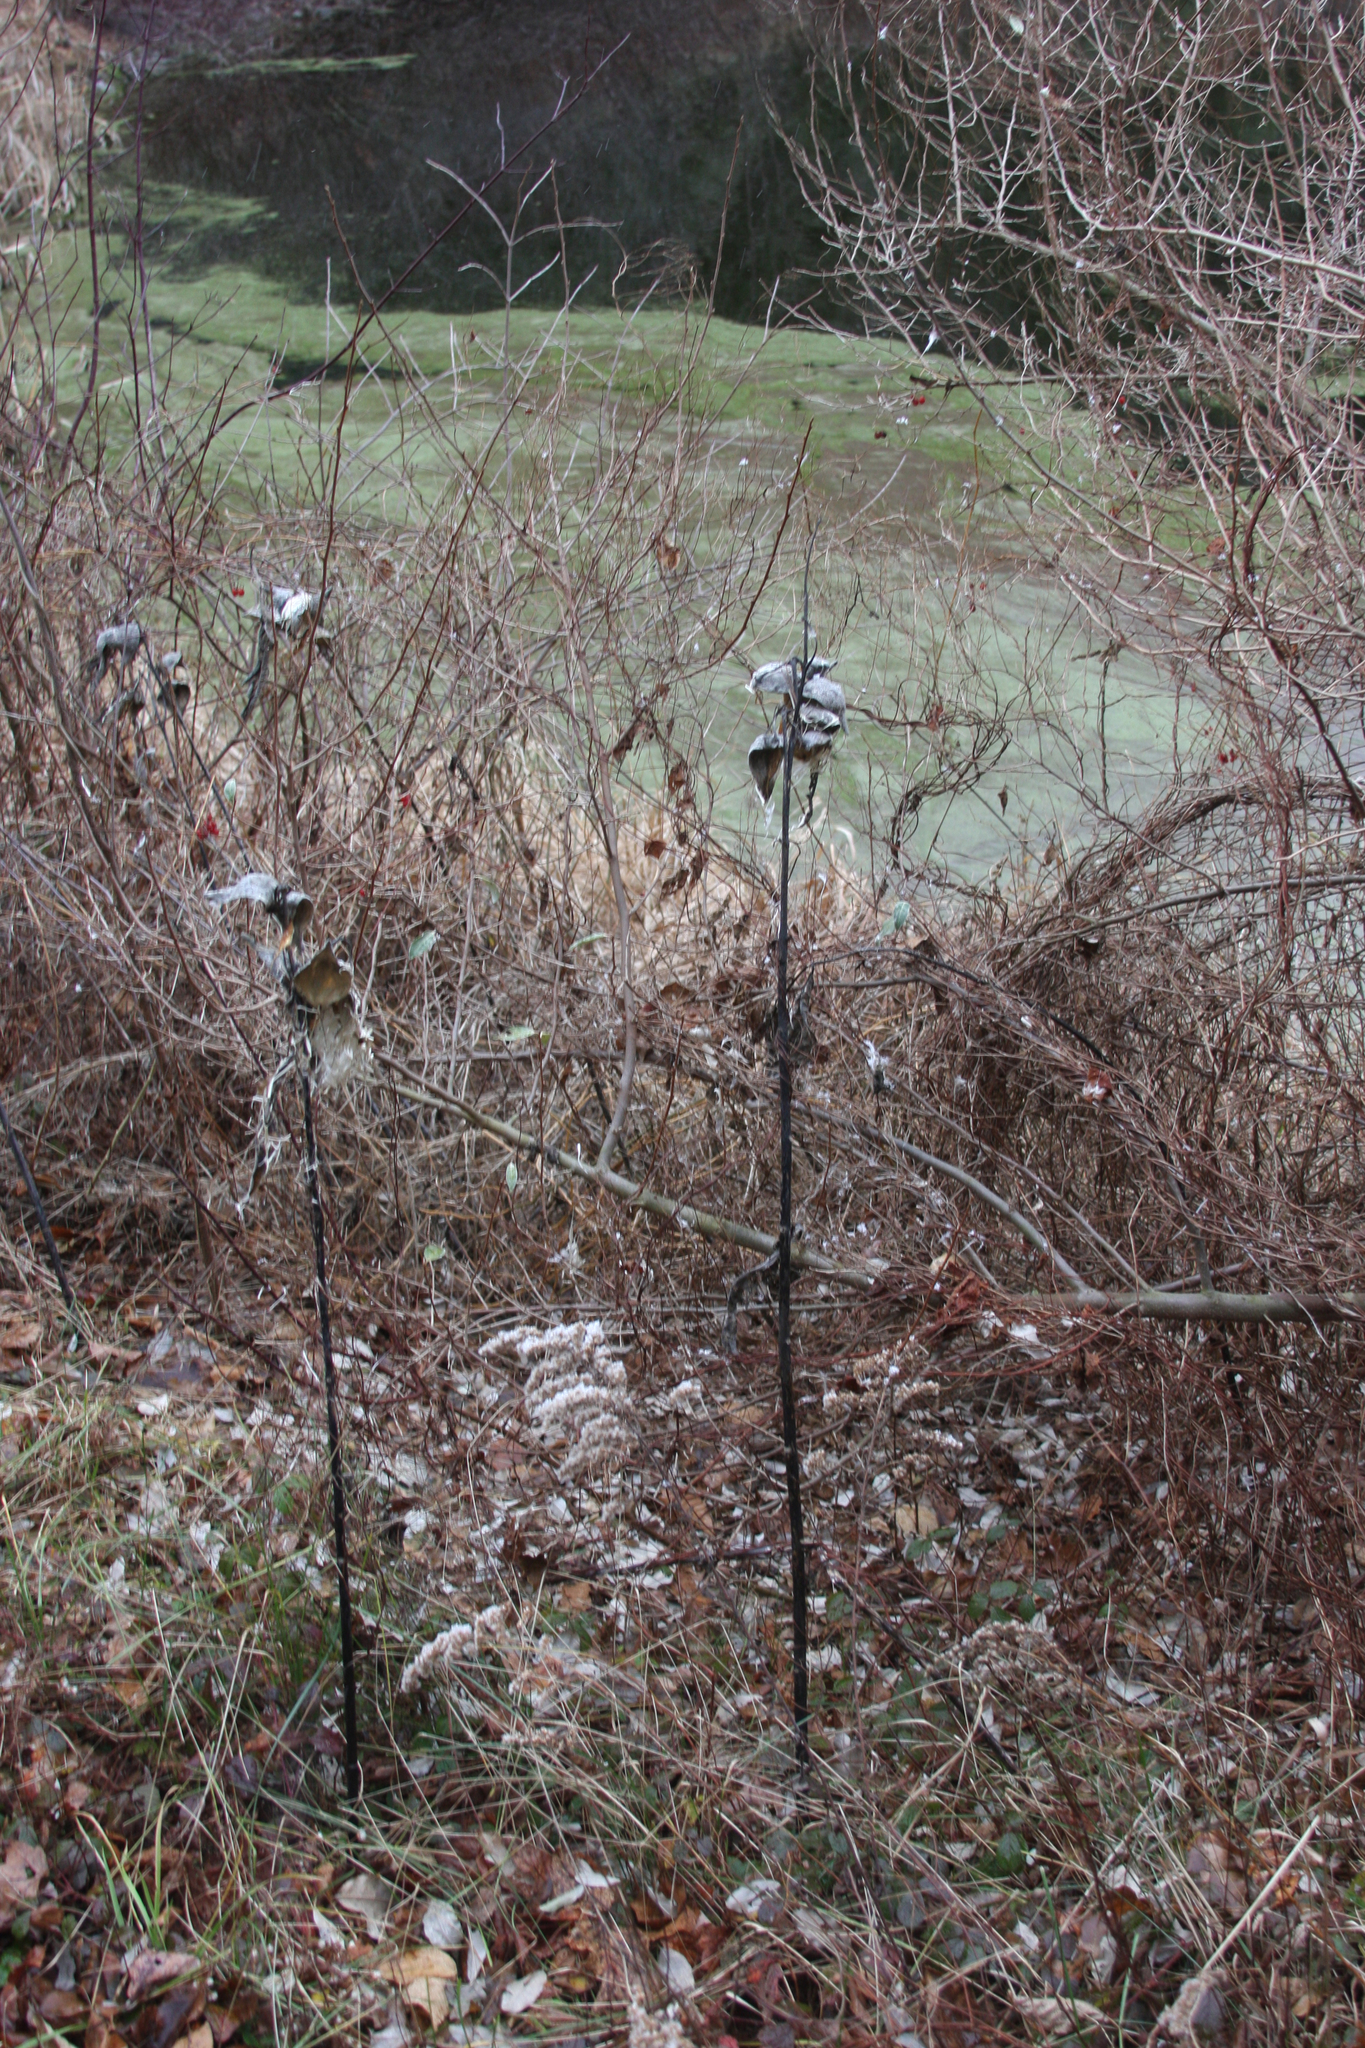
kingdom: Plantae
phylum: Tracheophyta
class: Magnoliopsida
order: Gentianales
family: Apocynaceae
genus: Asclepias
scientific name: Asclepias syriaca
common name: Common milkweed
